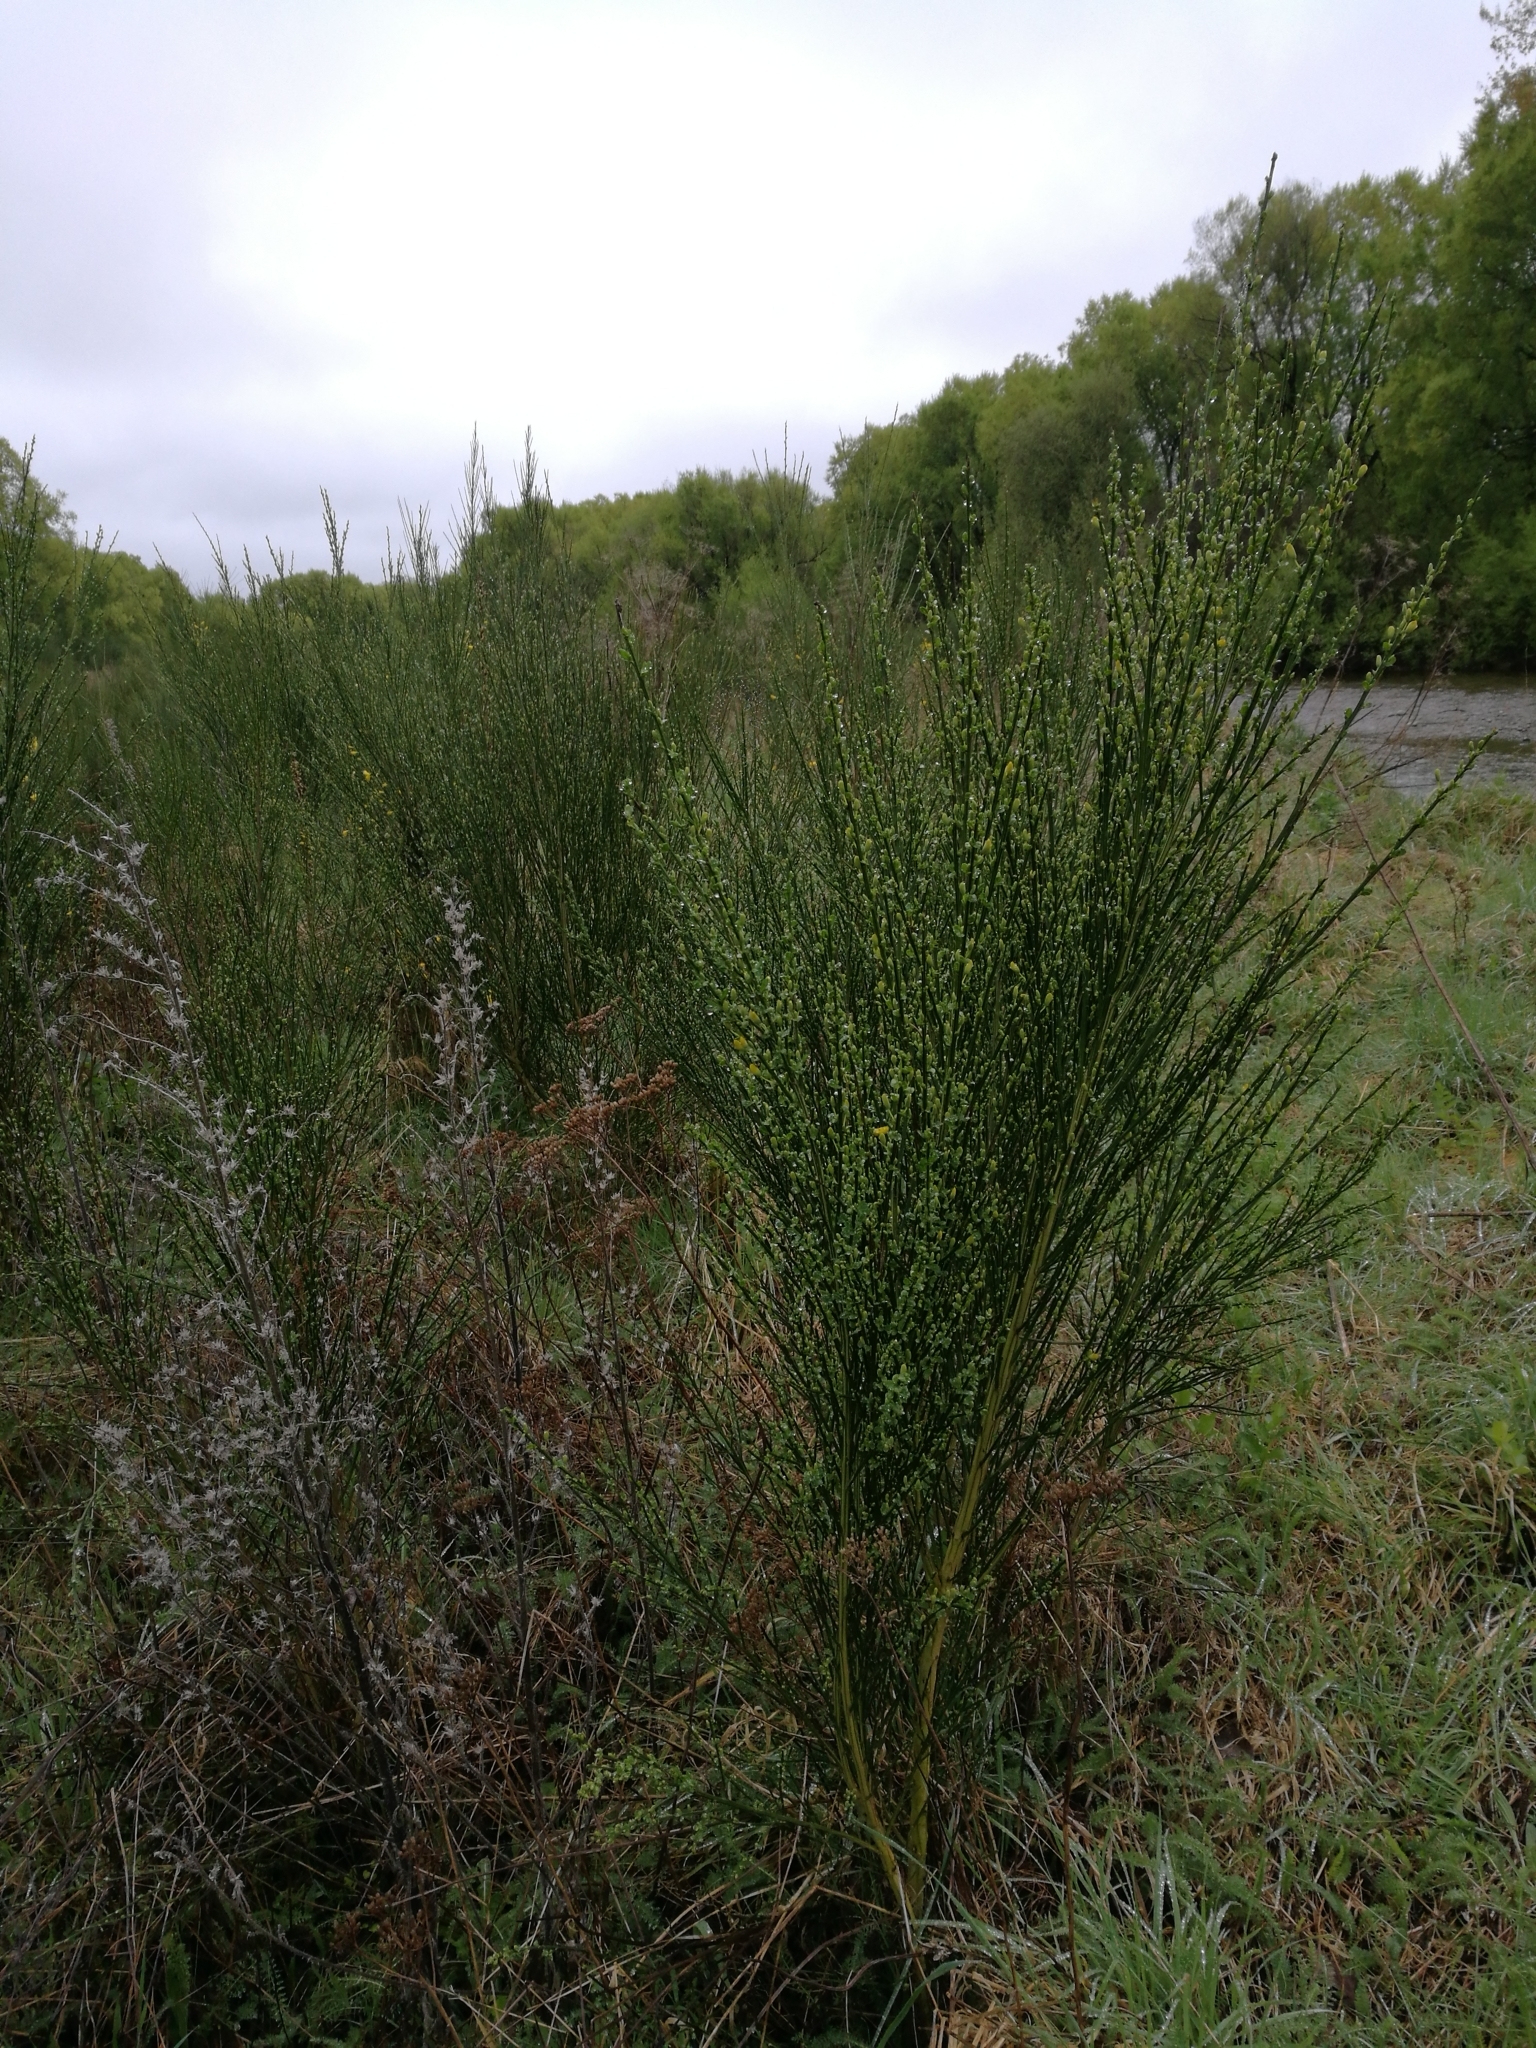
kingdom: Plantae
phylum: Tracheophyta
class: Magnoliopsida
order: Fabales
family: Fabaceae
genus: Cytisus
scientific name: Cytisus scoparius
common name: Scotch broom
